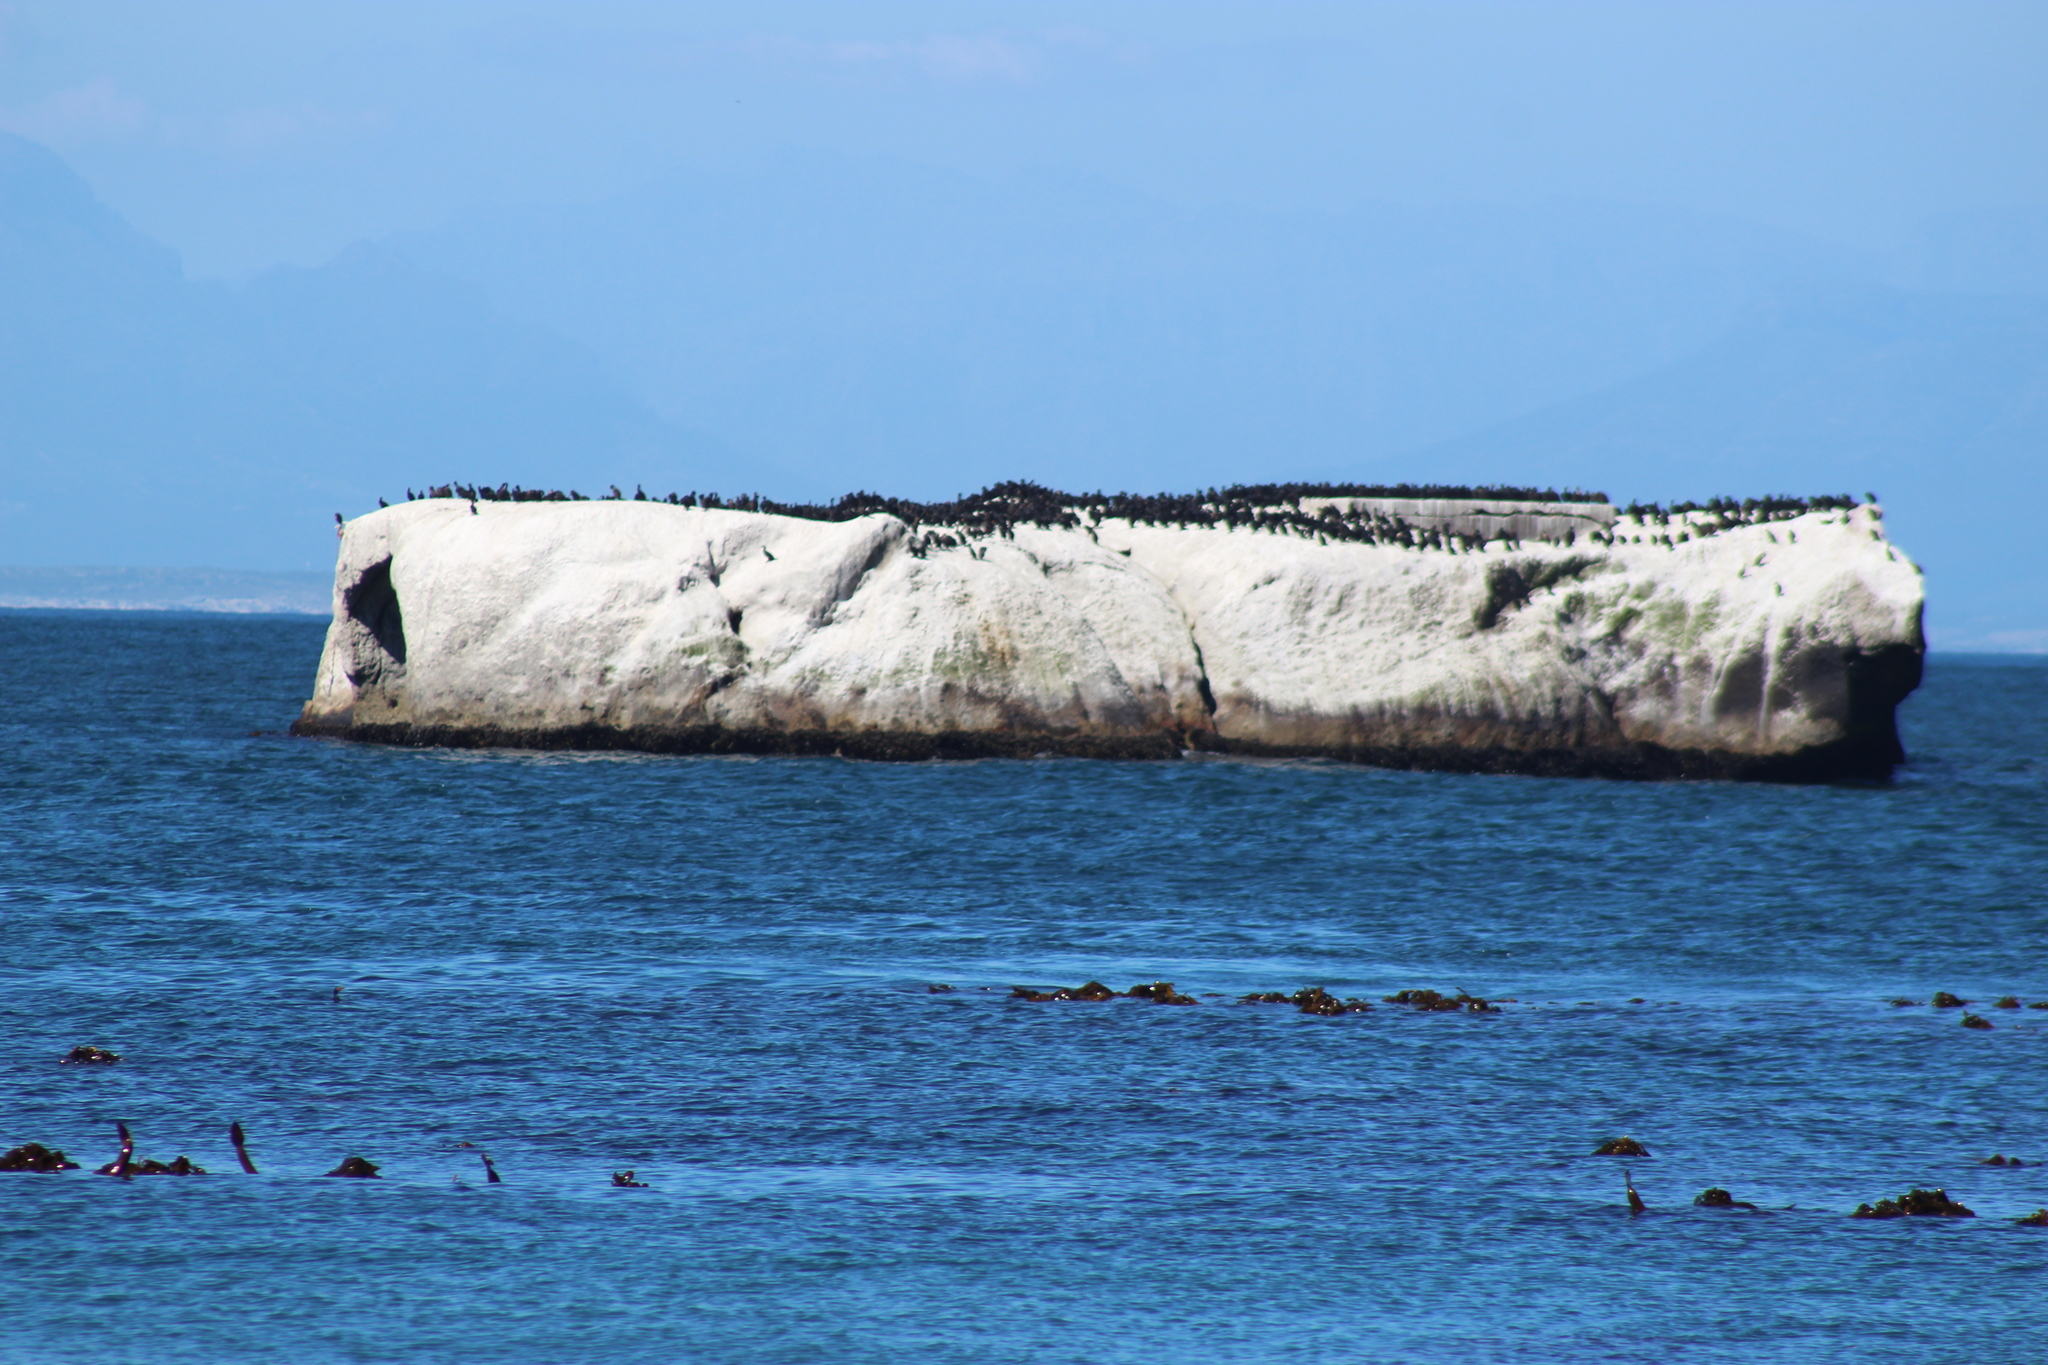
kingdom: Animalia
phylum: Chordata
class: Aves
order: Suliformes
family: Phalacrocoracidae
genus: Phalacrocorax
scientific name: Phalacrocorax capensis
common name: Cape cormorant
